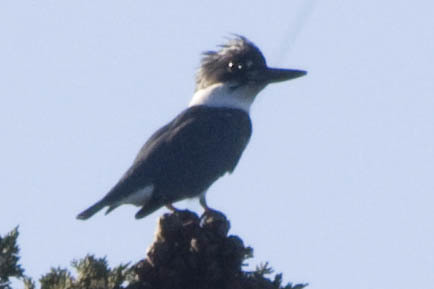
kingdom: Animalia
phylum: Chordata
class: Aves
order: Coraciiformes
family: Alcedinidae
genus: Megaceryle
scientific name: Megaceryle alcyon
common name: Belted kingfisher
